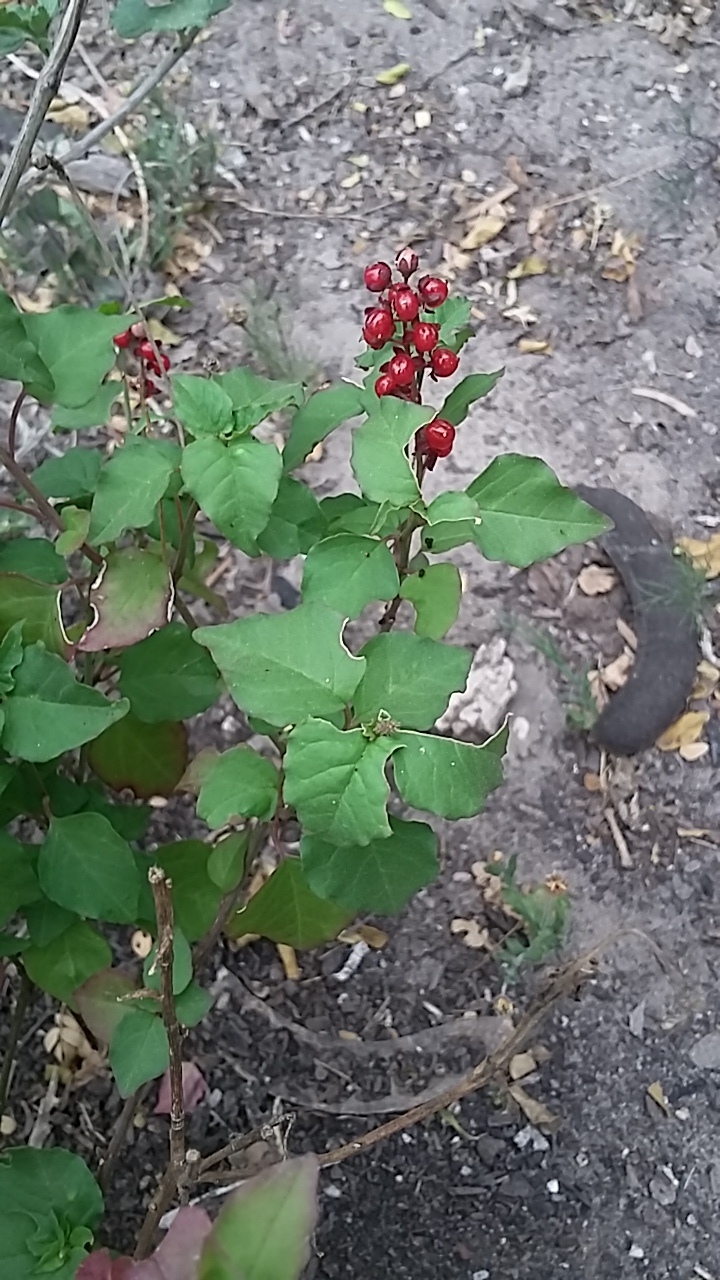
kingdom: Plantae
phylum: Tracheophyta
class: Magnoliopsida
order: Caryophyllales
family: Phytolaccaceae
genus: Rivina
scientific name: Rivina humilis
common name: Rougeplant
